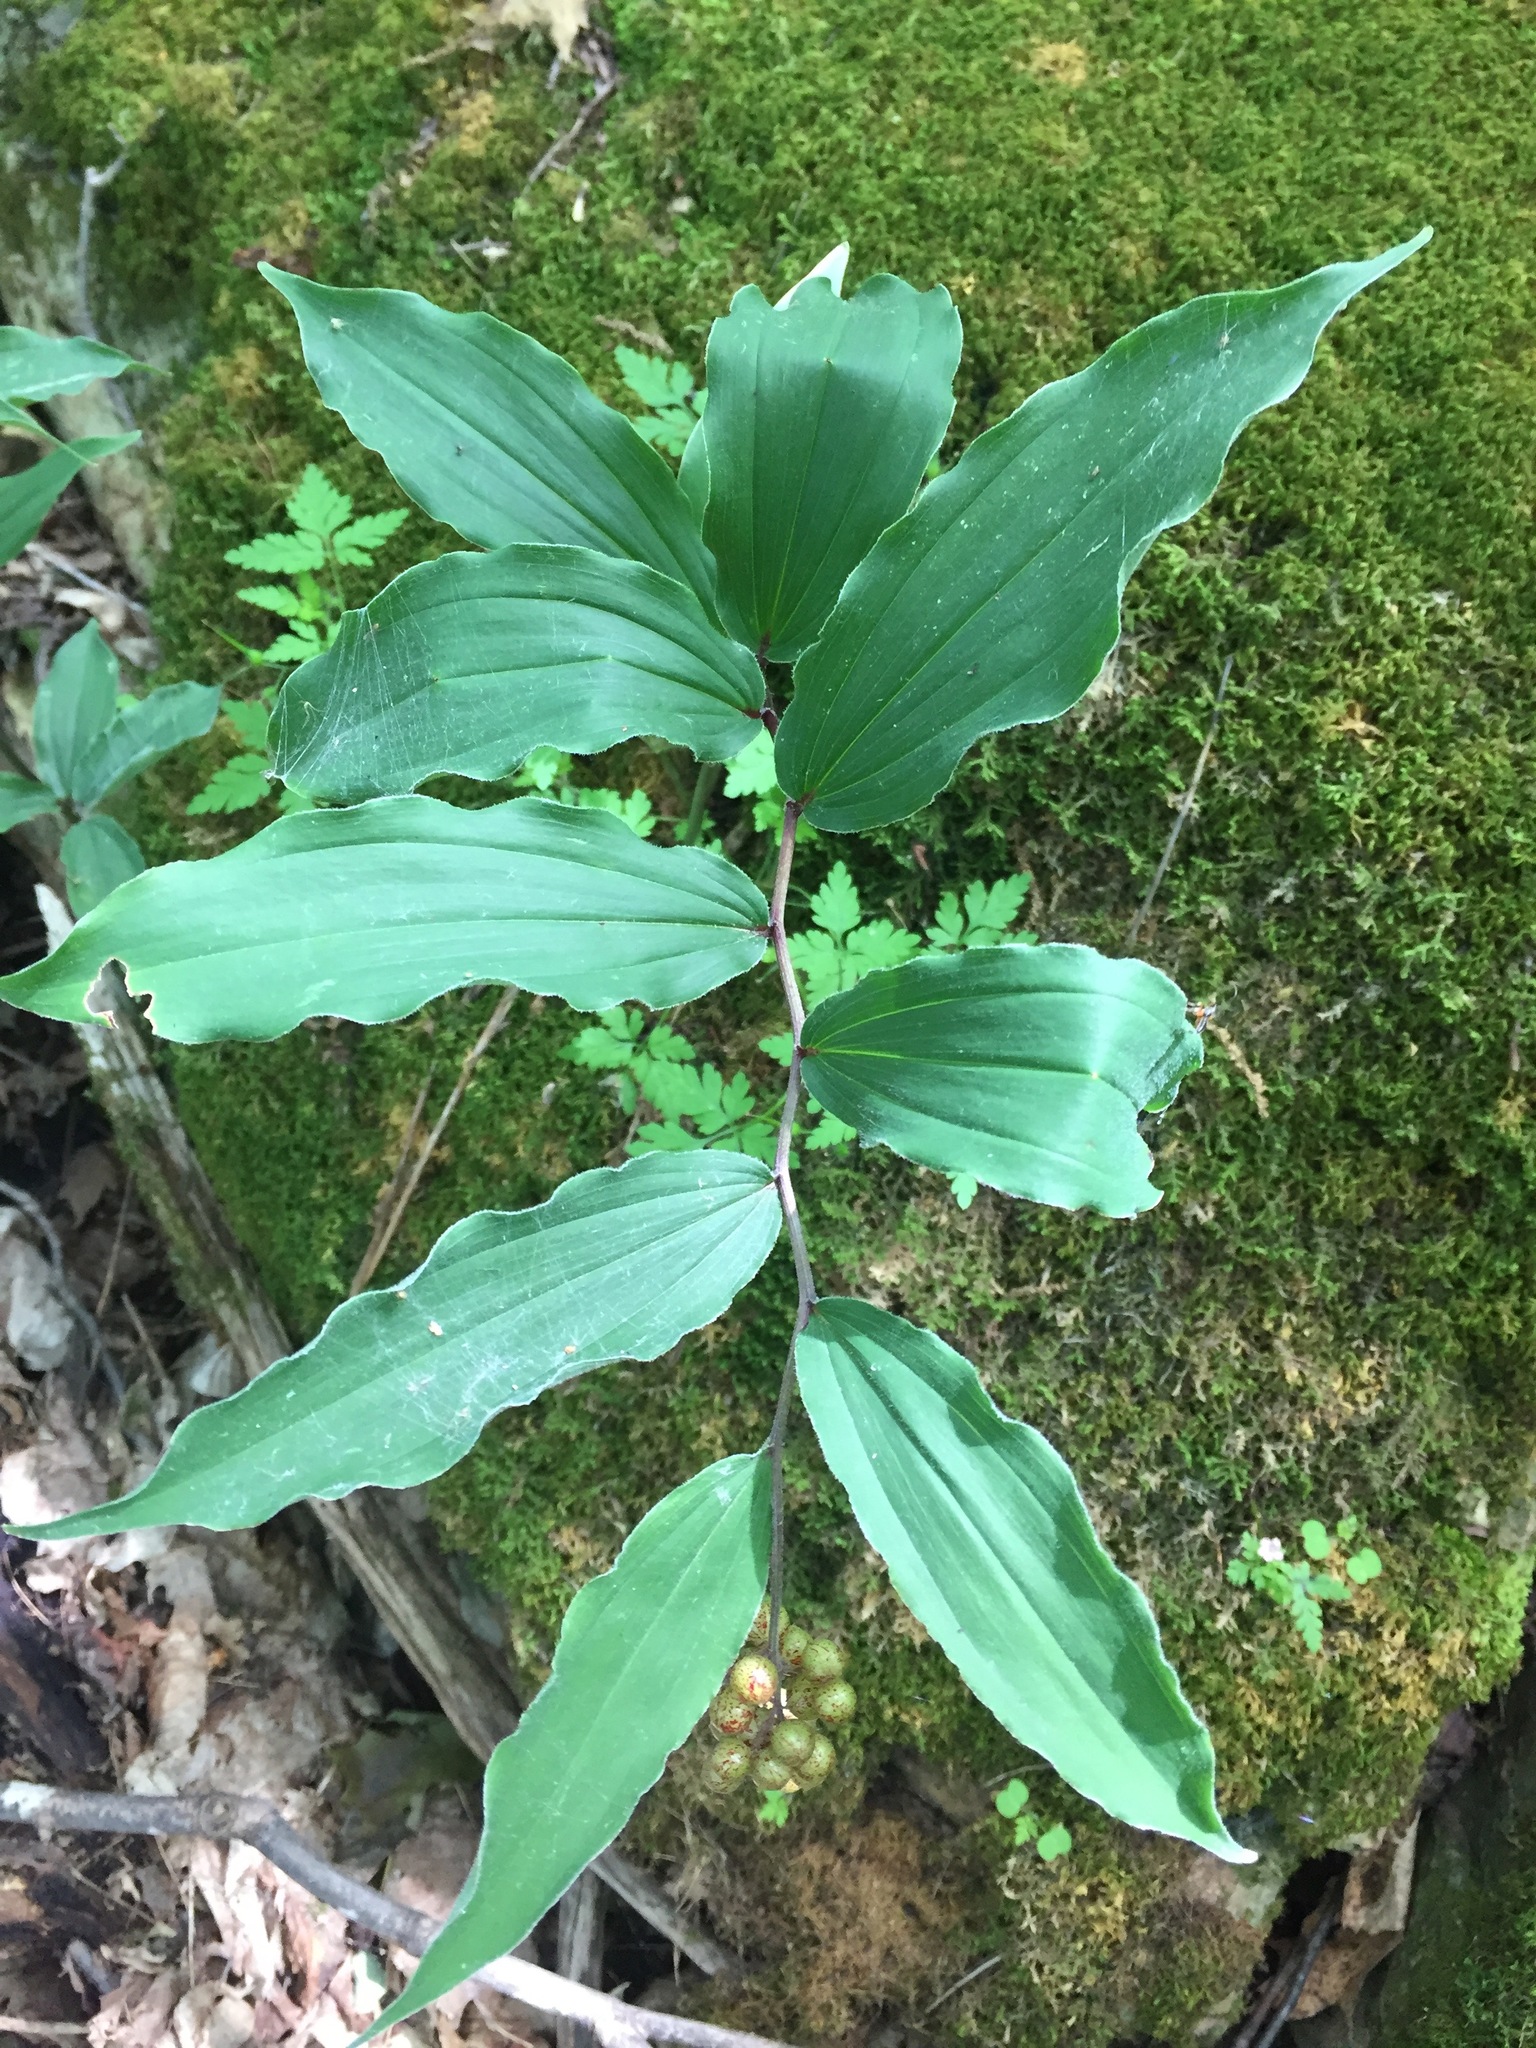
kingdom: Plantae
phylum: Tracheophyta
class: Liliopsida
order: Asparagales
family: Asparagaceae
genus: Maianthemum
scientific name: Maianthemum racemosum
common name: False spikenard
